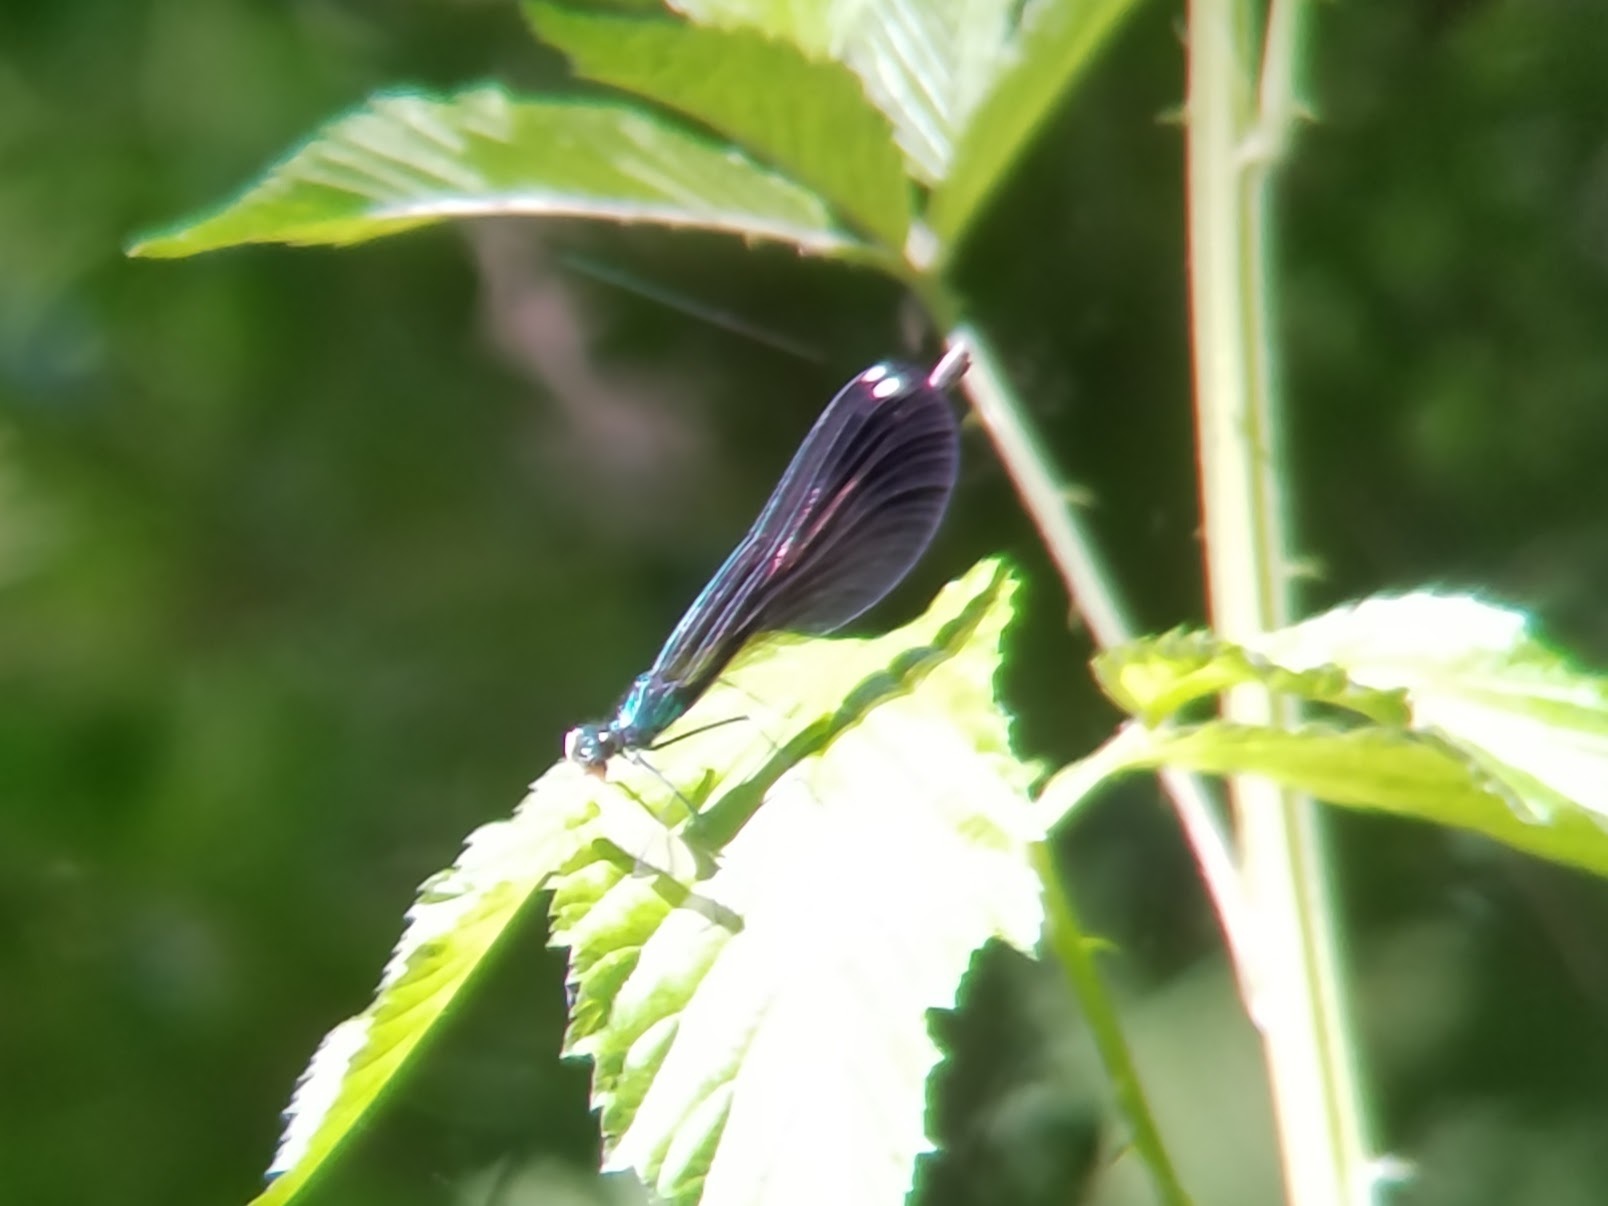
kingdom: Animalia
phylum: Arthropoda
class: Insecta
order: Odonata
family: Calopterygidae
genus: Calopteryx
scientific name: Calopteryx maculata
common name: Ebony jewelwing
